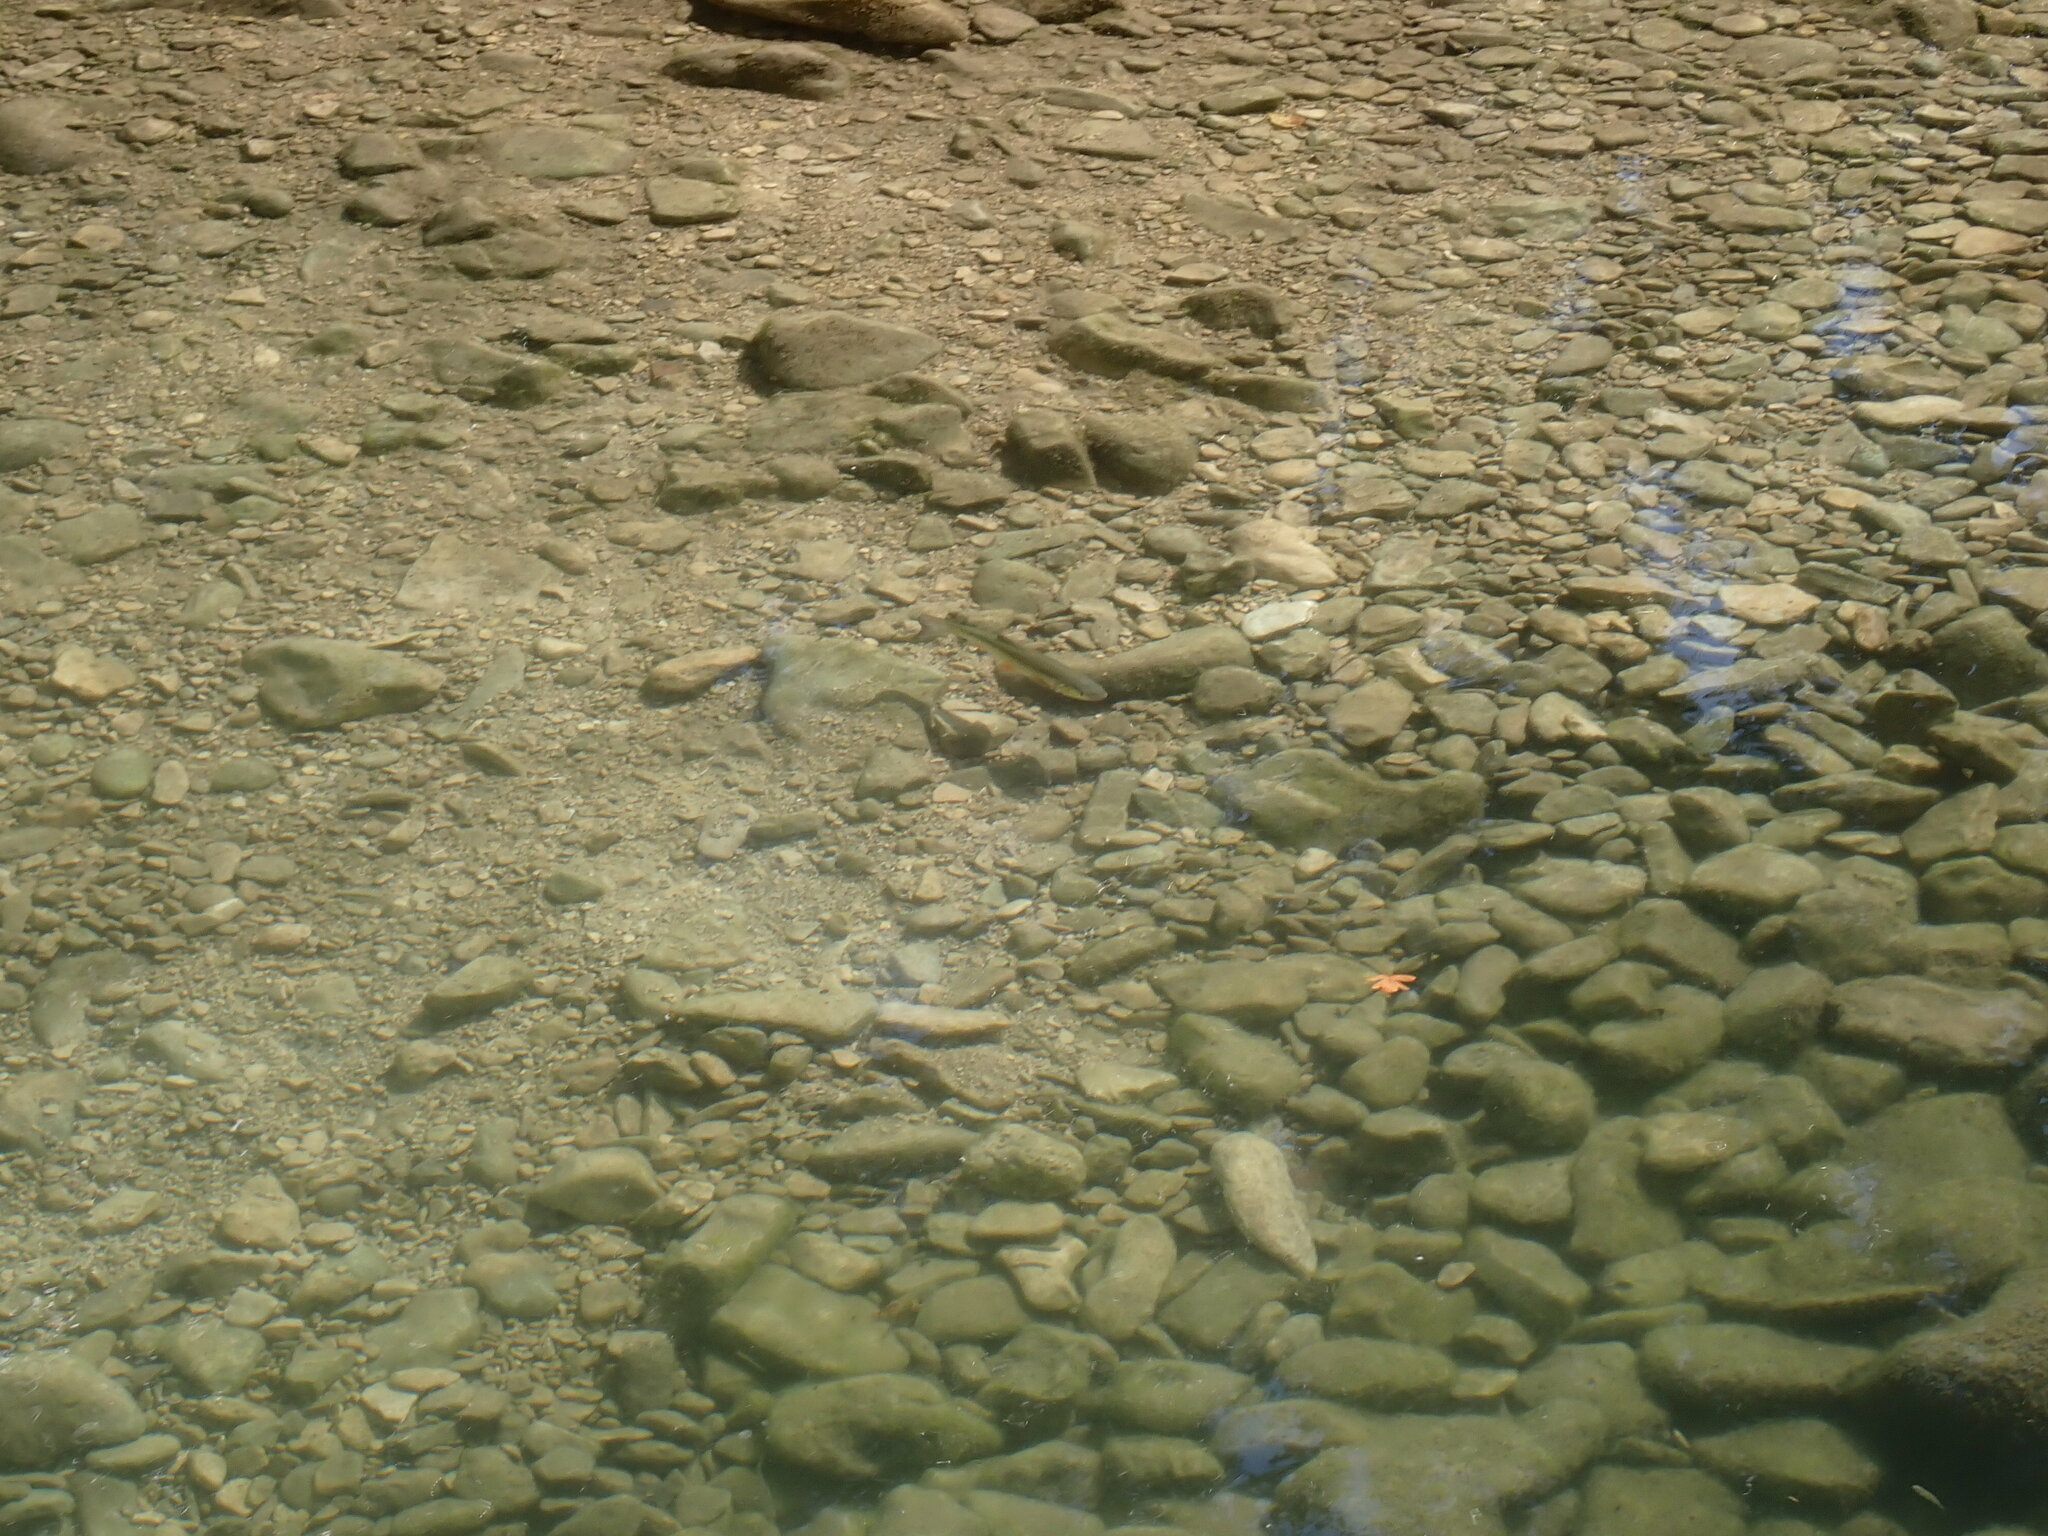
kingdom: Animalia
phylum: Chordata
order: Cypriniformes
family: Cyprinidae
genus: Squalius
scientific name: Squalius cephalus
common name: Chub
